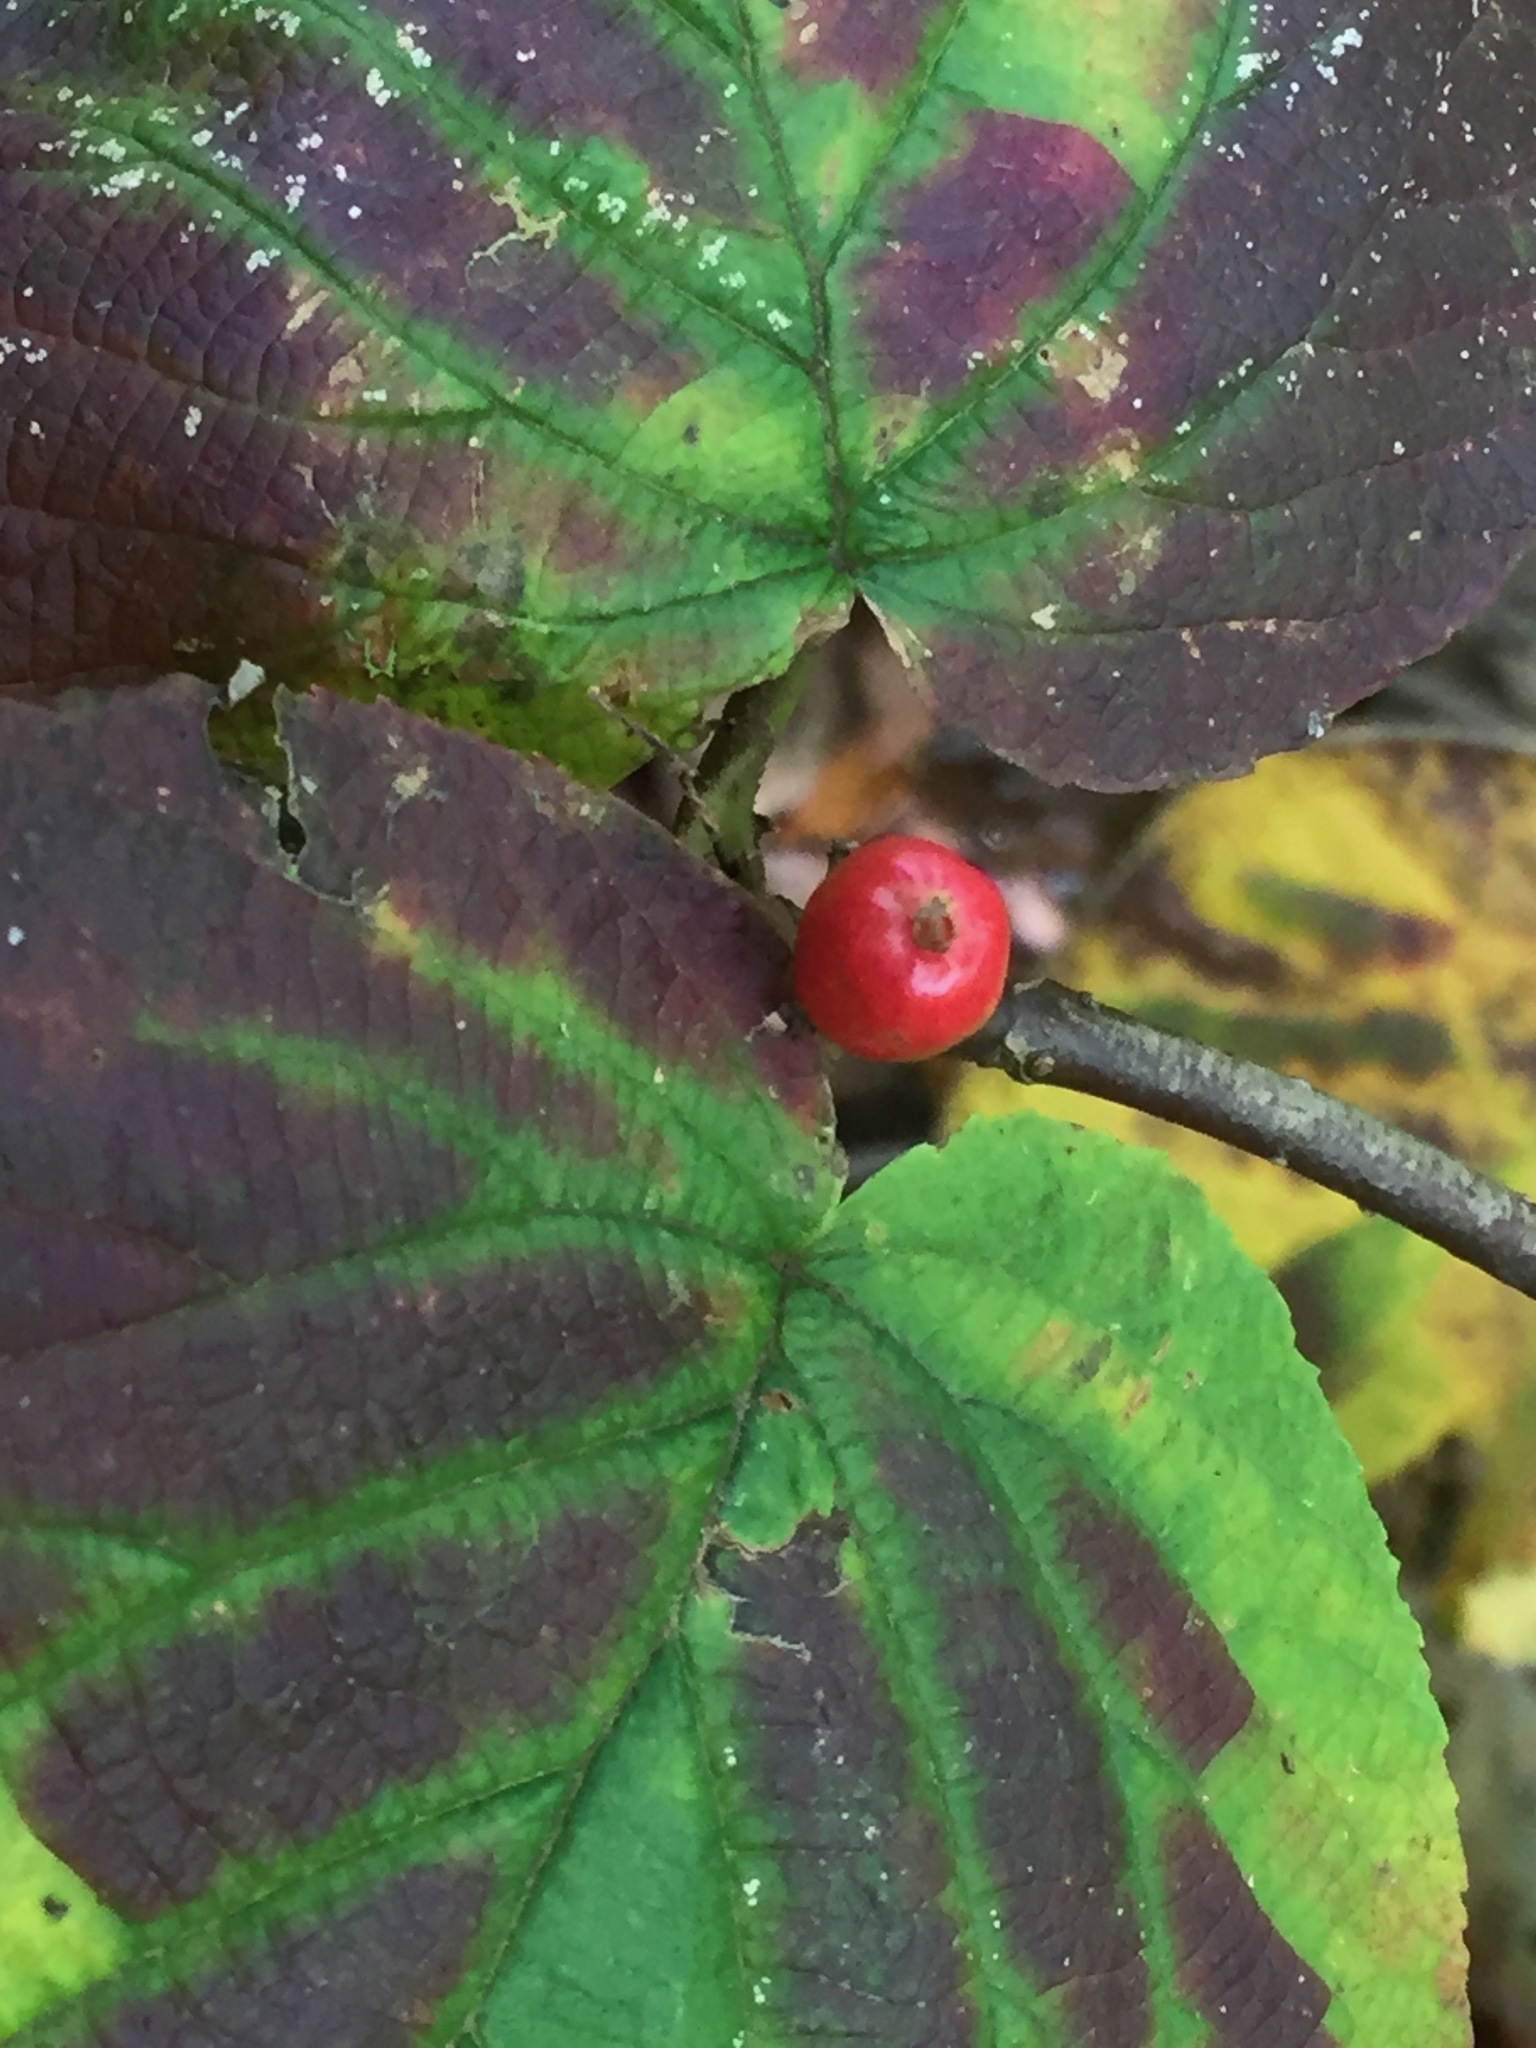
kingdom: Plantae
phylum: Tracheophyta
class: Magnoliopsida
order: Dipsacales
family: Viburnaceae
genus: Viburnum
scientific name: Viburnum lantanoides
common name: Hobblebush
